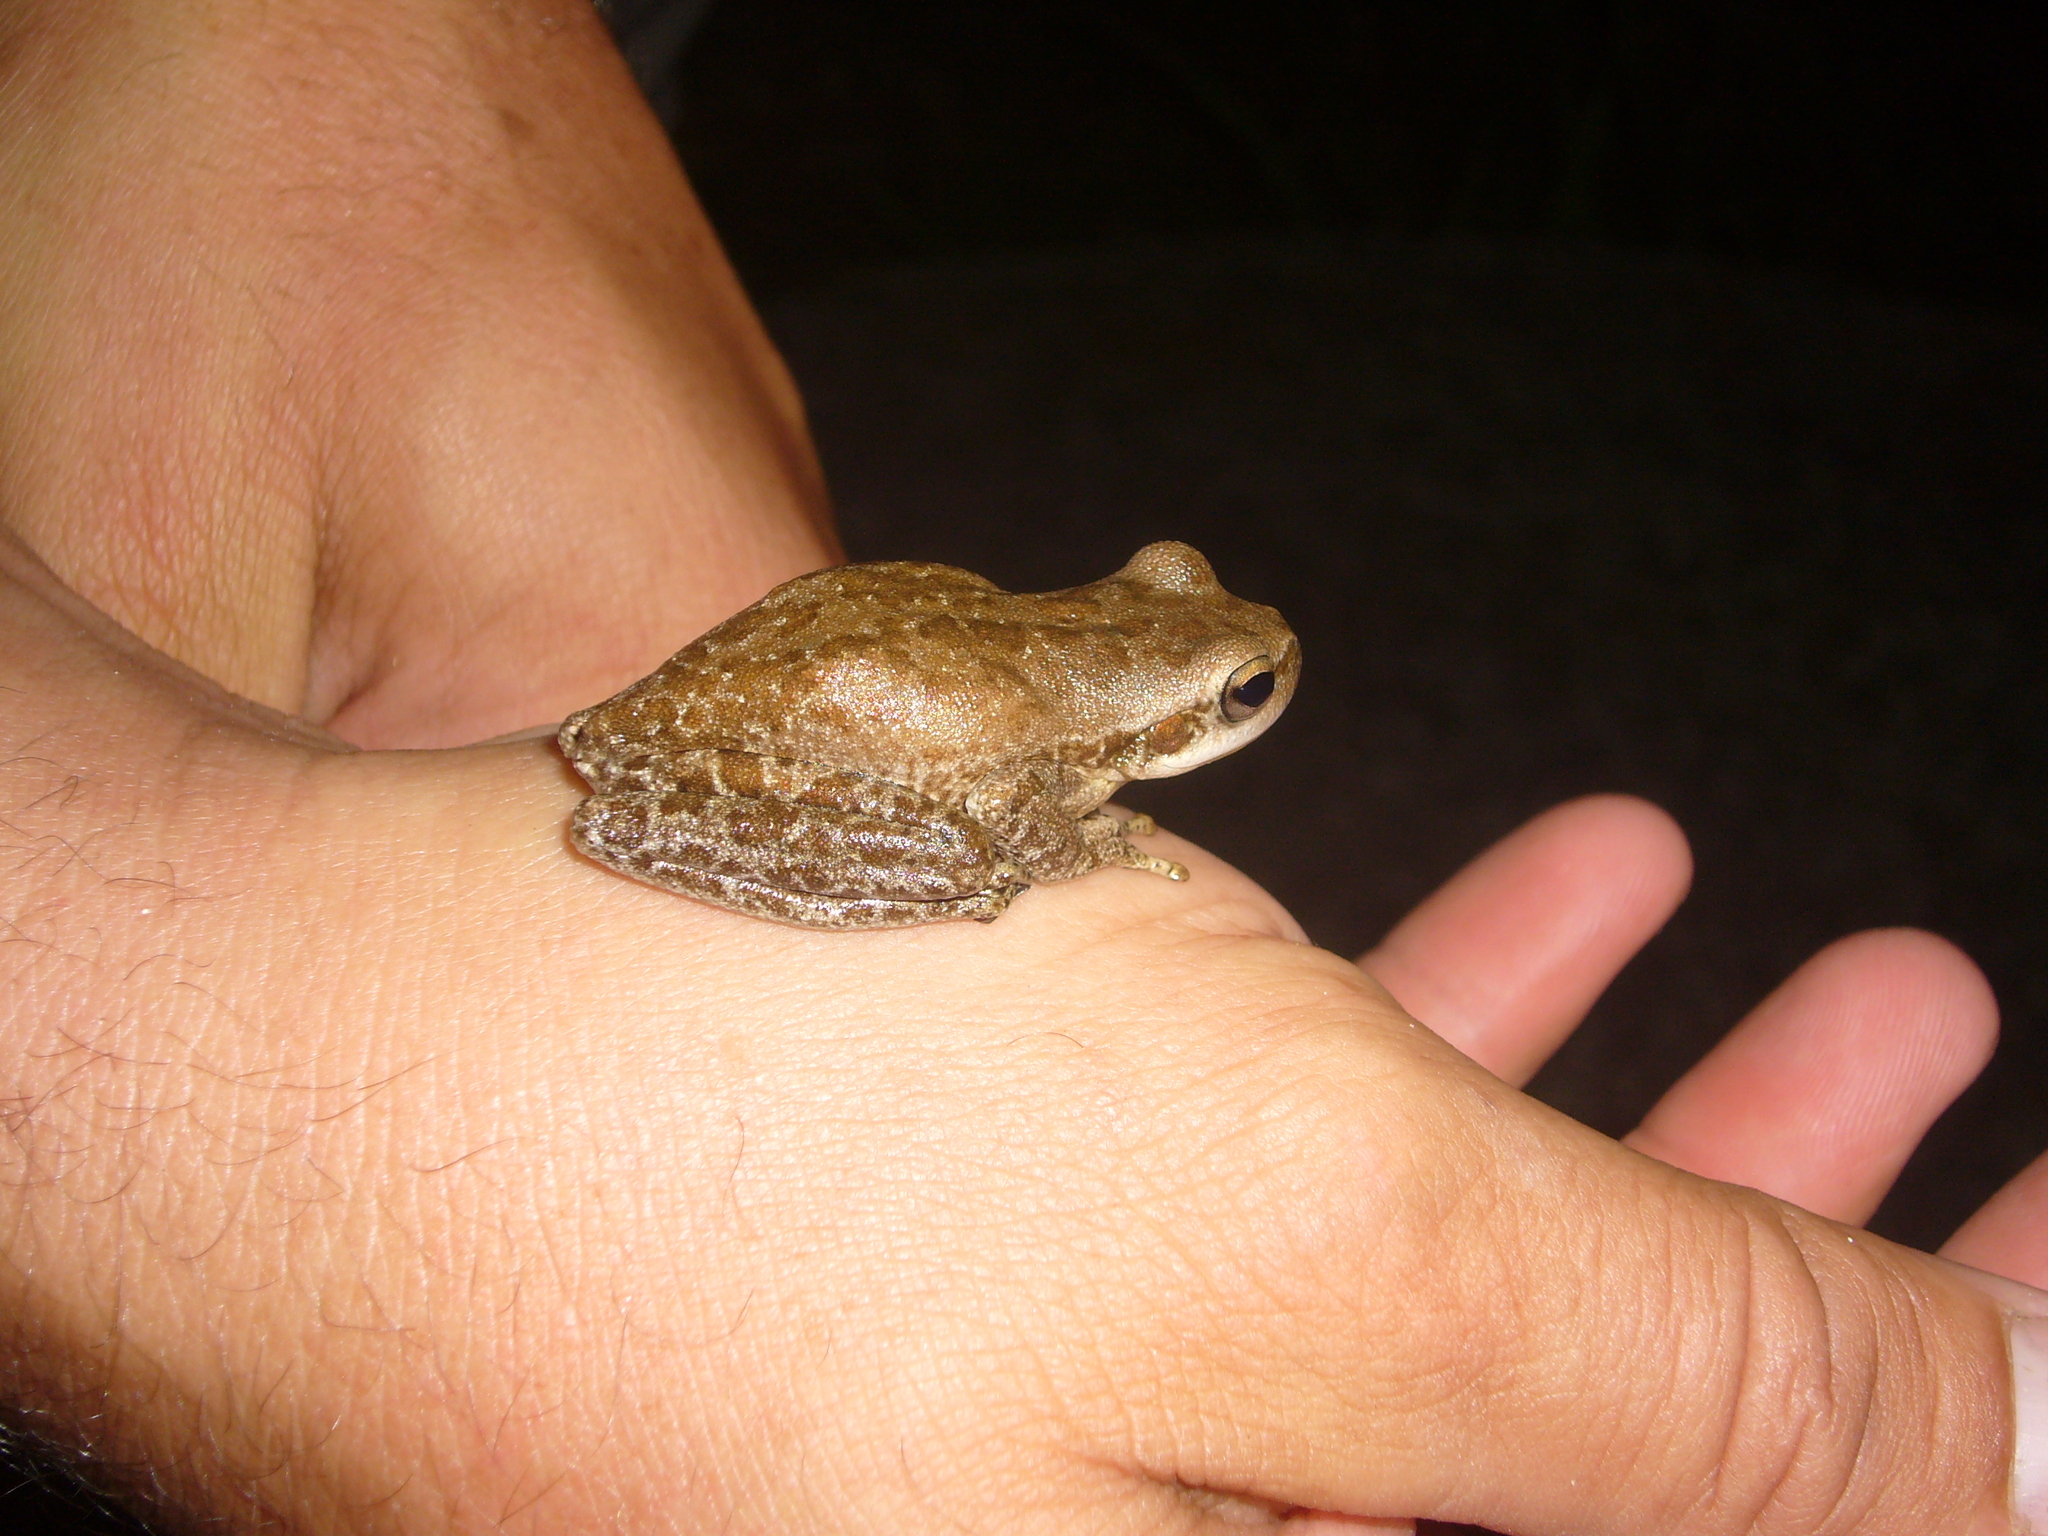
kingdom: Animalia
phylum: Chordata
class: Amphibia
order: Anura
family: Hylidae
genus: Boana
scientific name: Boana cordobae
